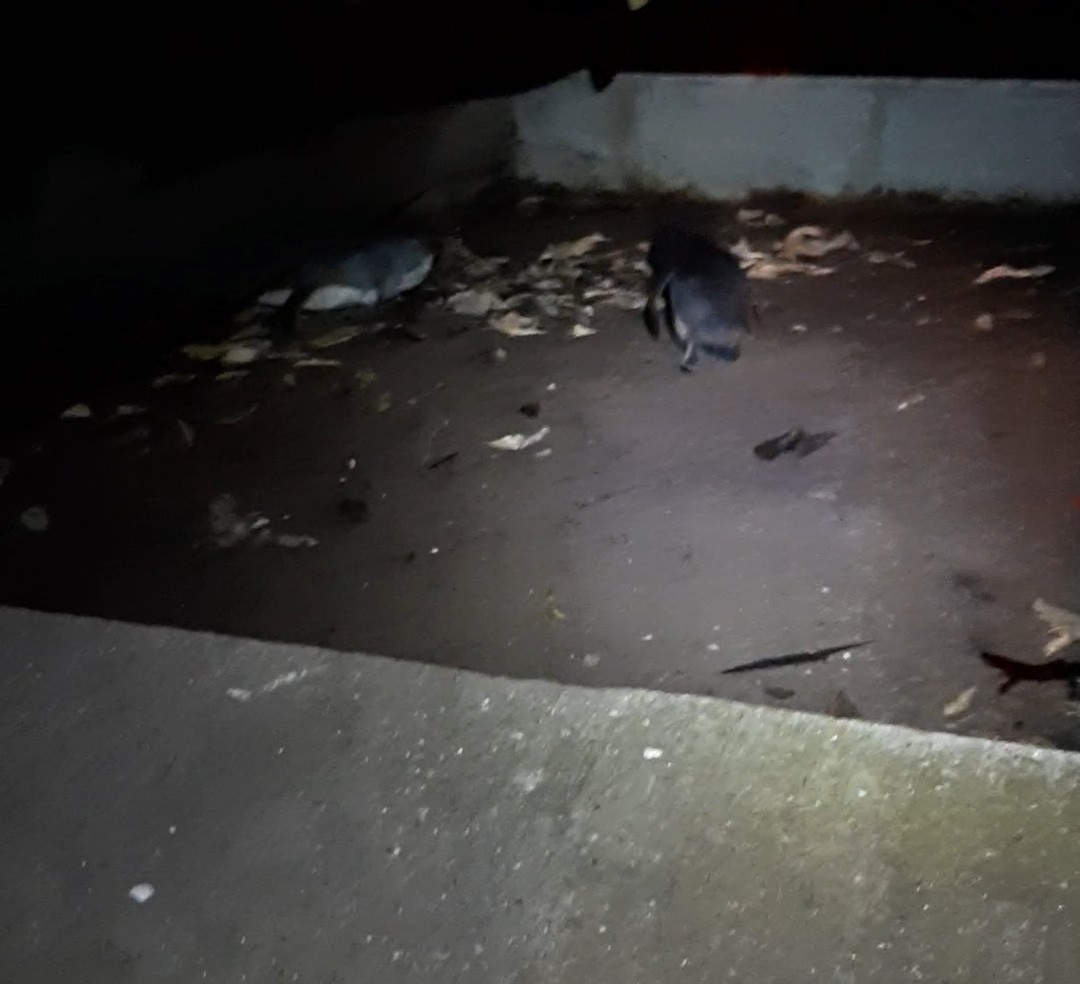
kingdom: Animalia
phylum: Chordata
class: Aves
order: Sphenisciformes
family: Spheniscidae
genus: Eudyptula
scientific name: Eudyptula minor
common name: Little penguin
